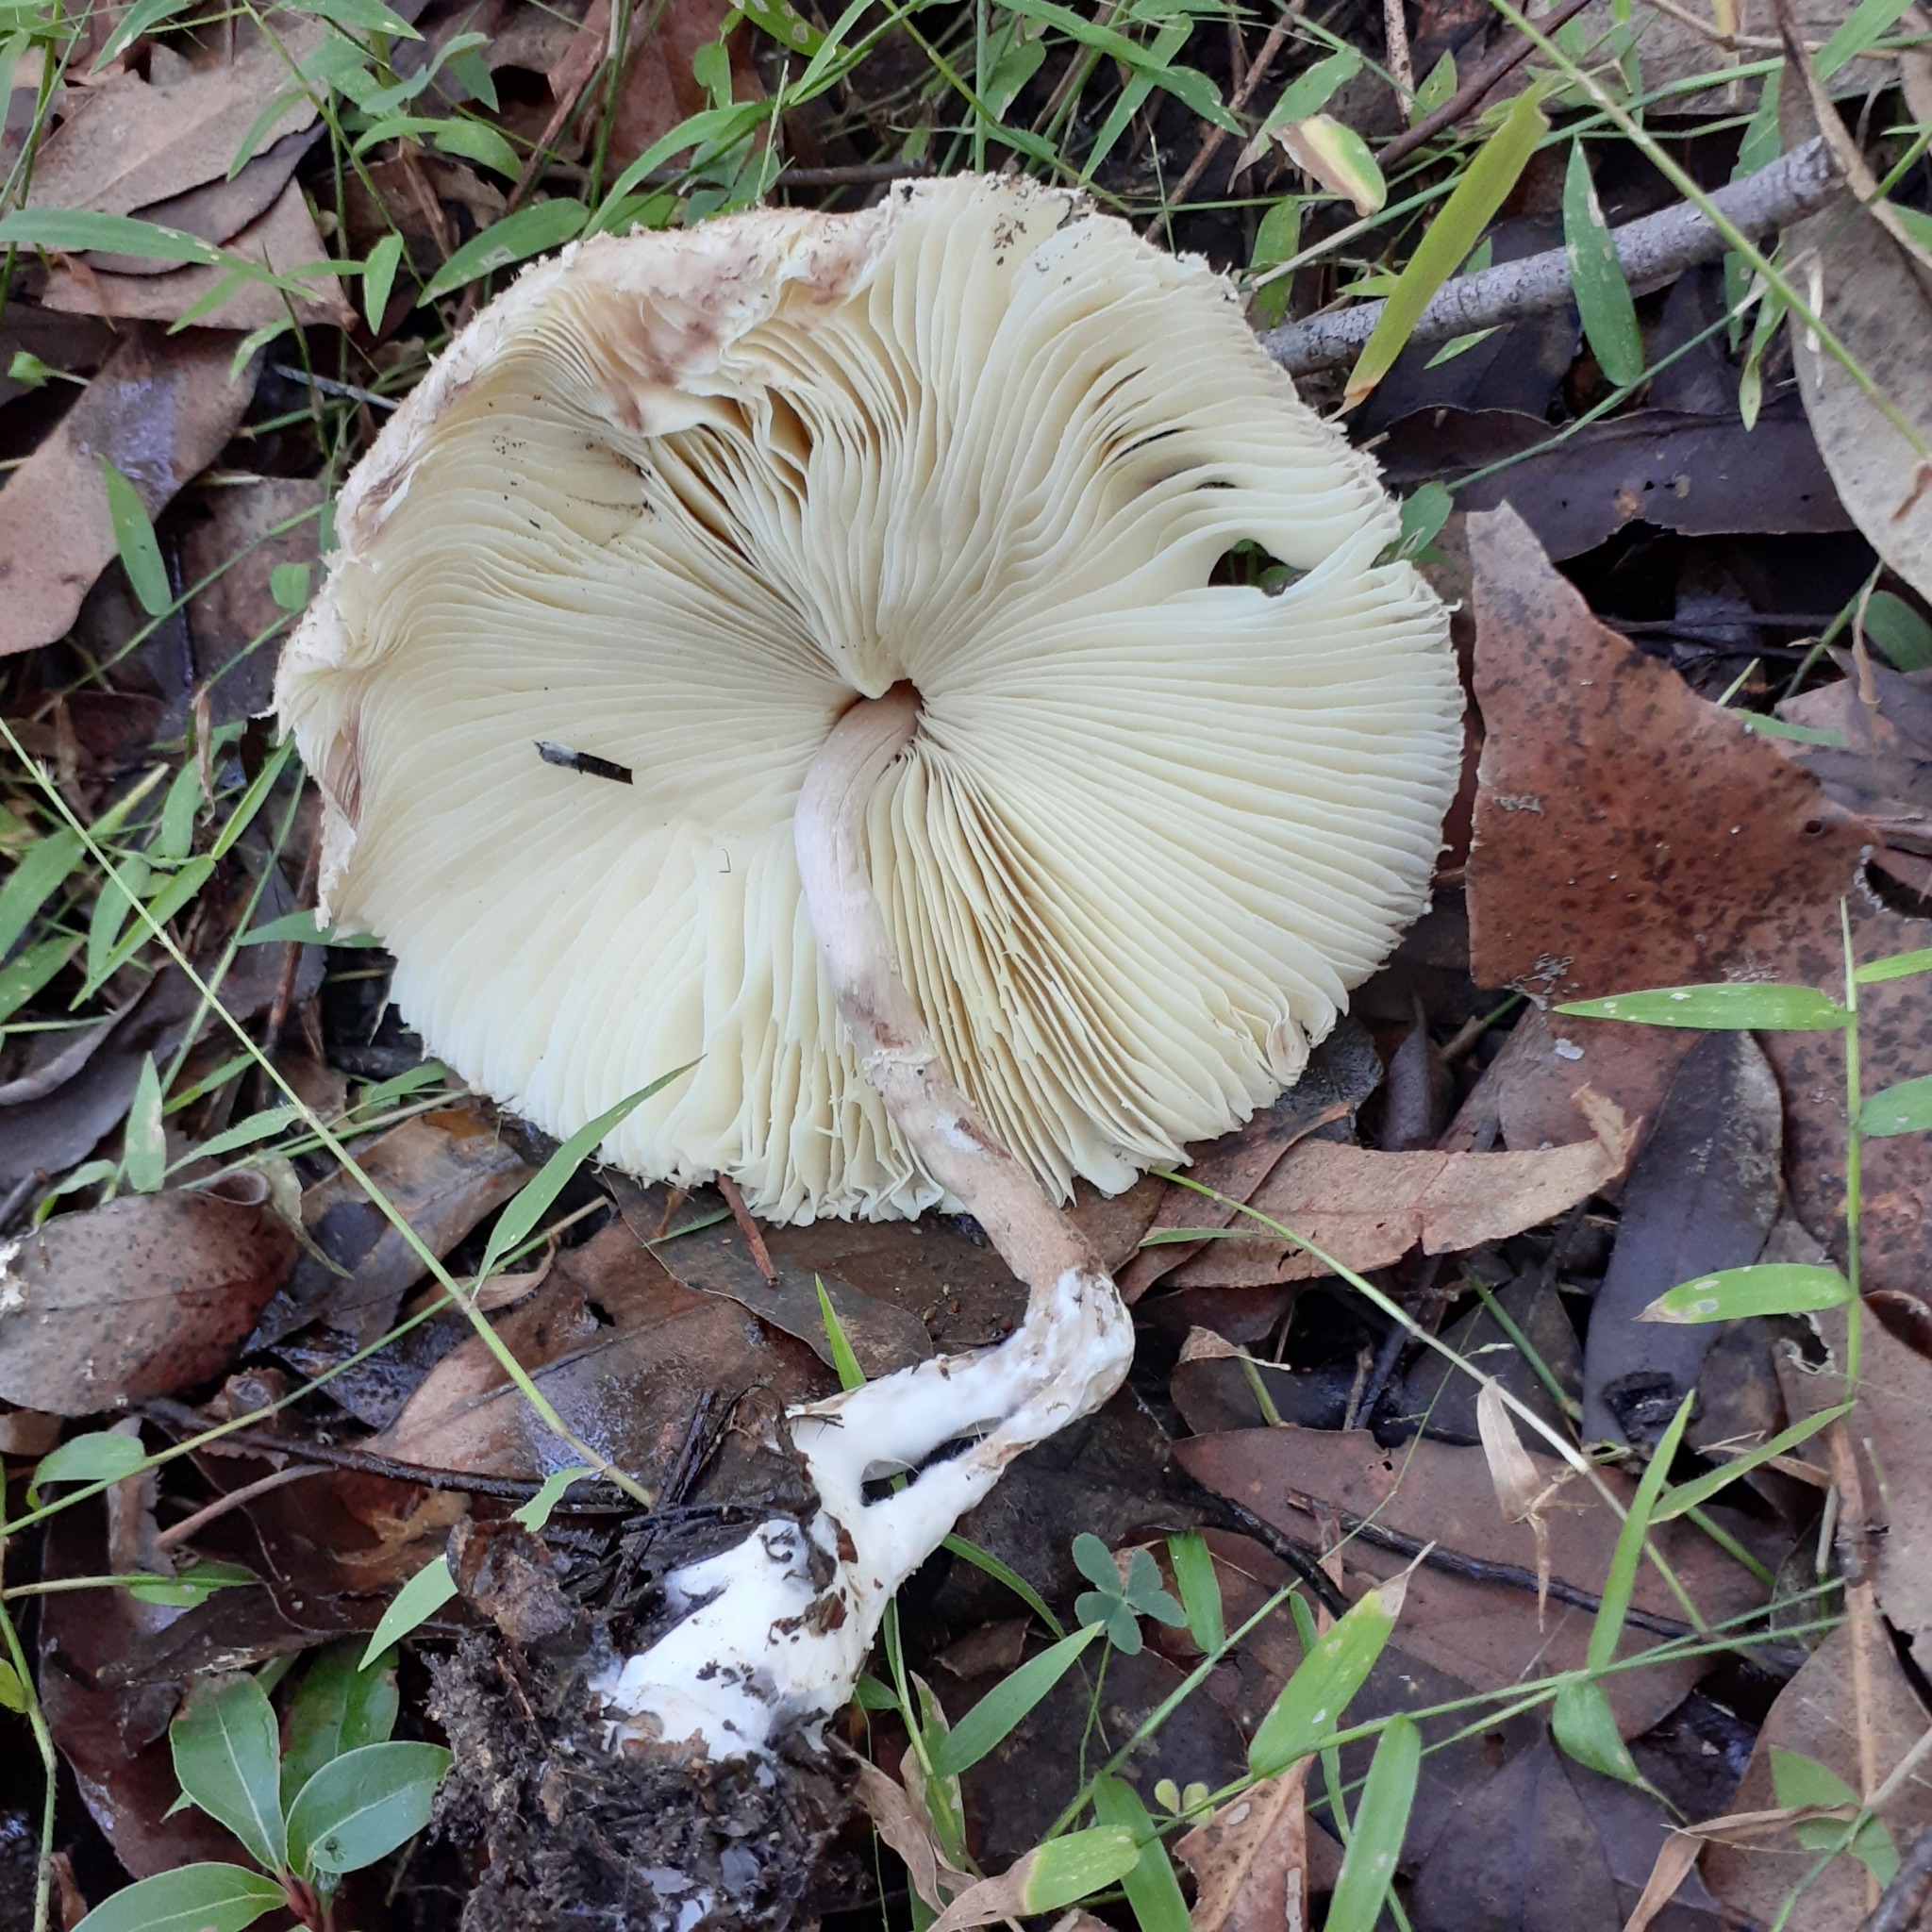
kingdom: Fungi
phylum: Basidiomycota
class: Agaricomycetes
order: Agaricales
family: Agaricaceae
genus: Macrolepiota
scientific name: Macrolepiota clelandii
